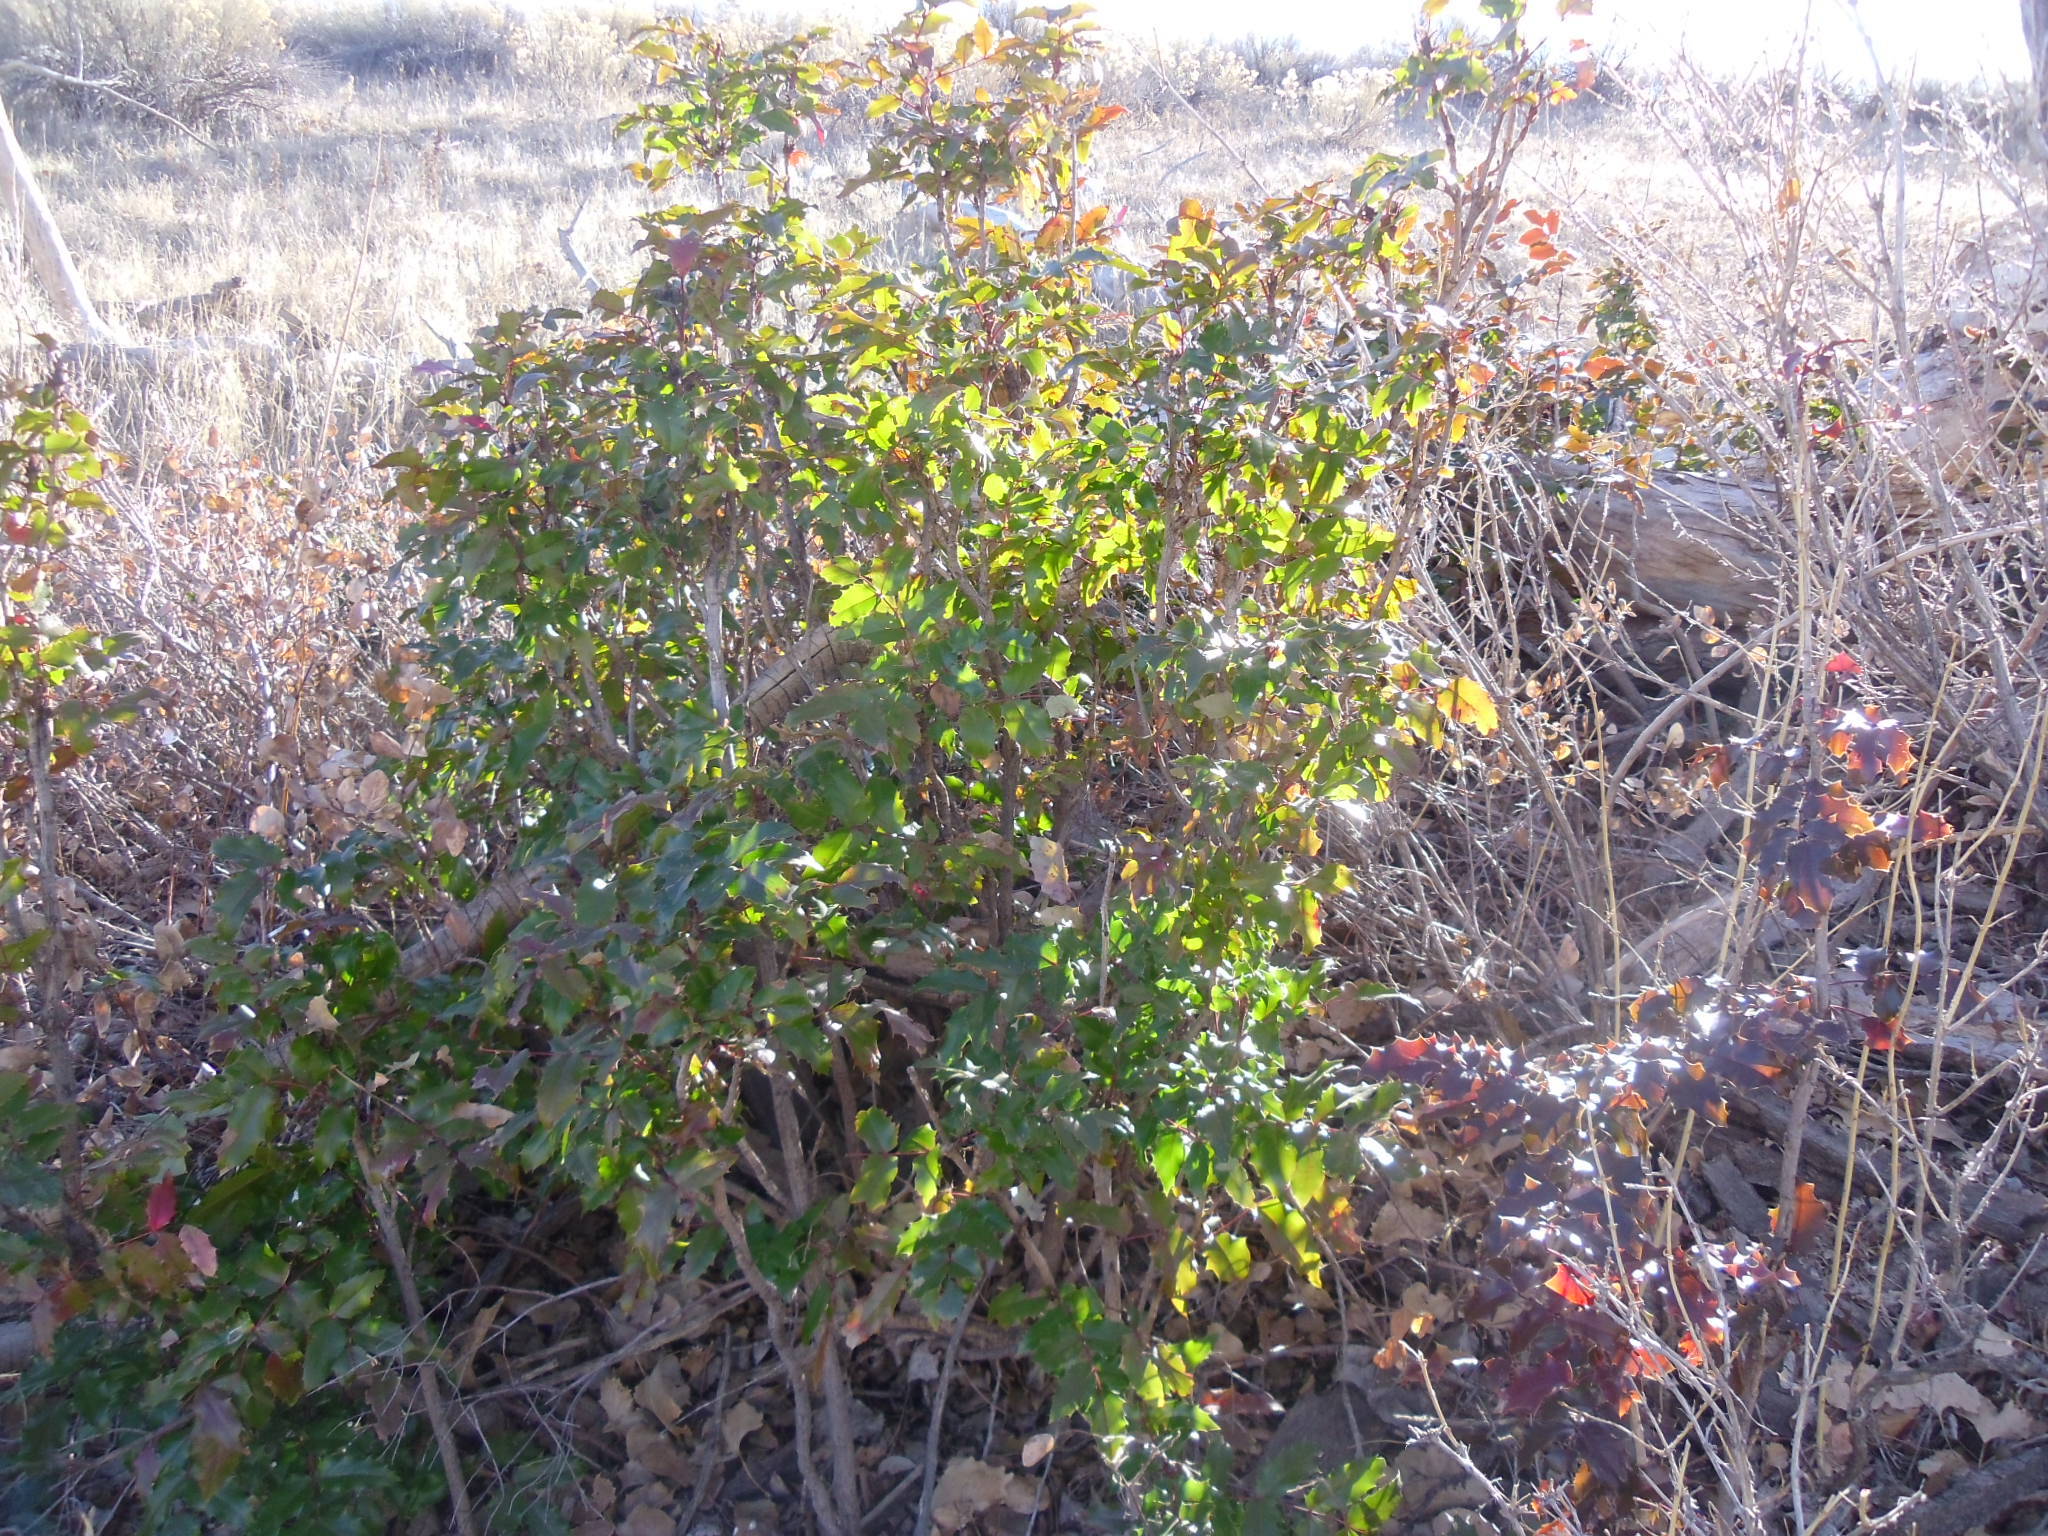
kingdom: Plantae
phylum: Tracheophyta
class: Magnoliopsida
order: Ranunculales
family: Berberidaceae
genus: Mahonia
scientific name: Mahonia aquifolium
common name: Oregon-grape
